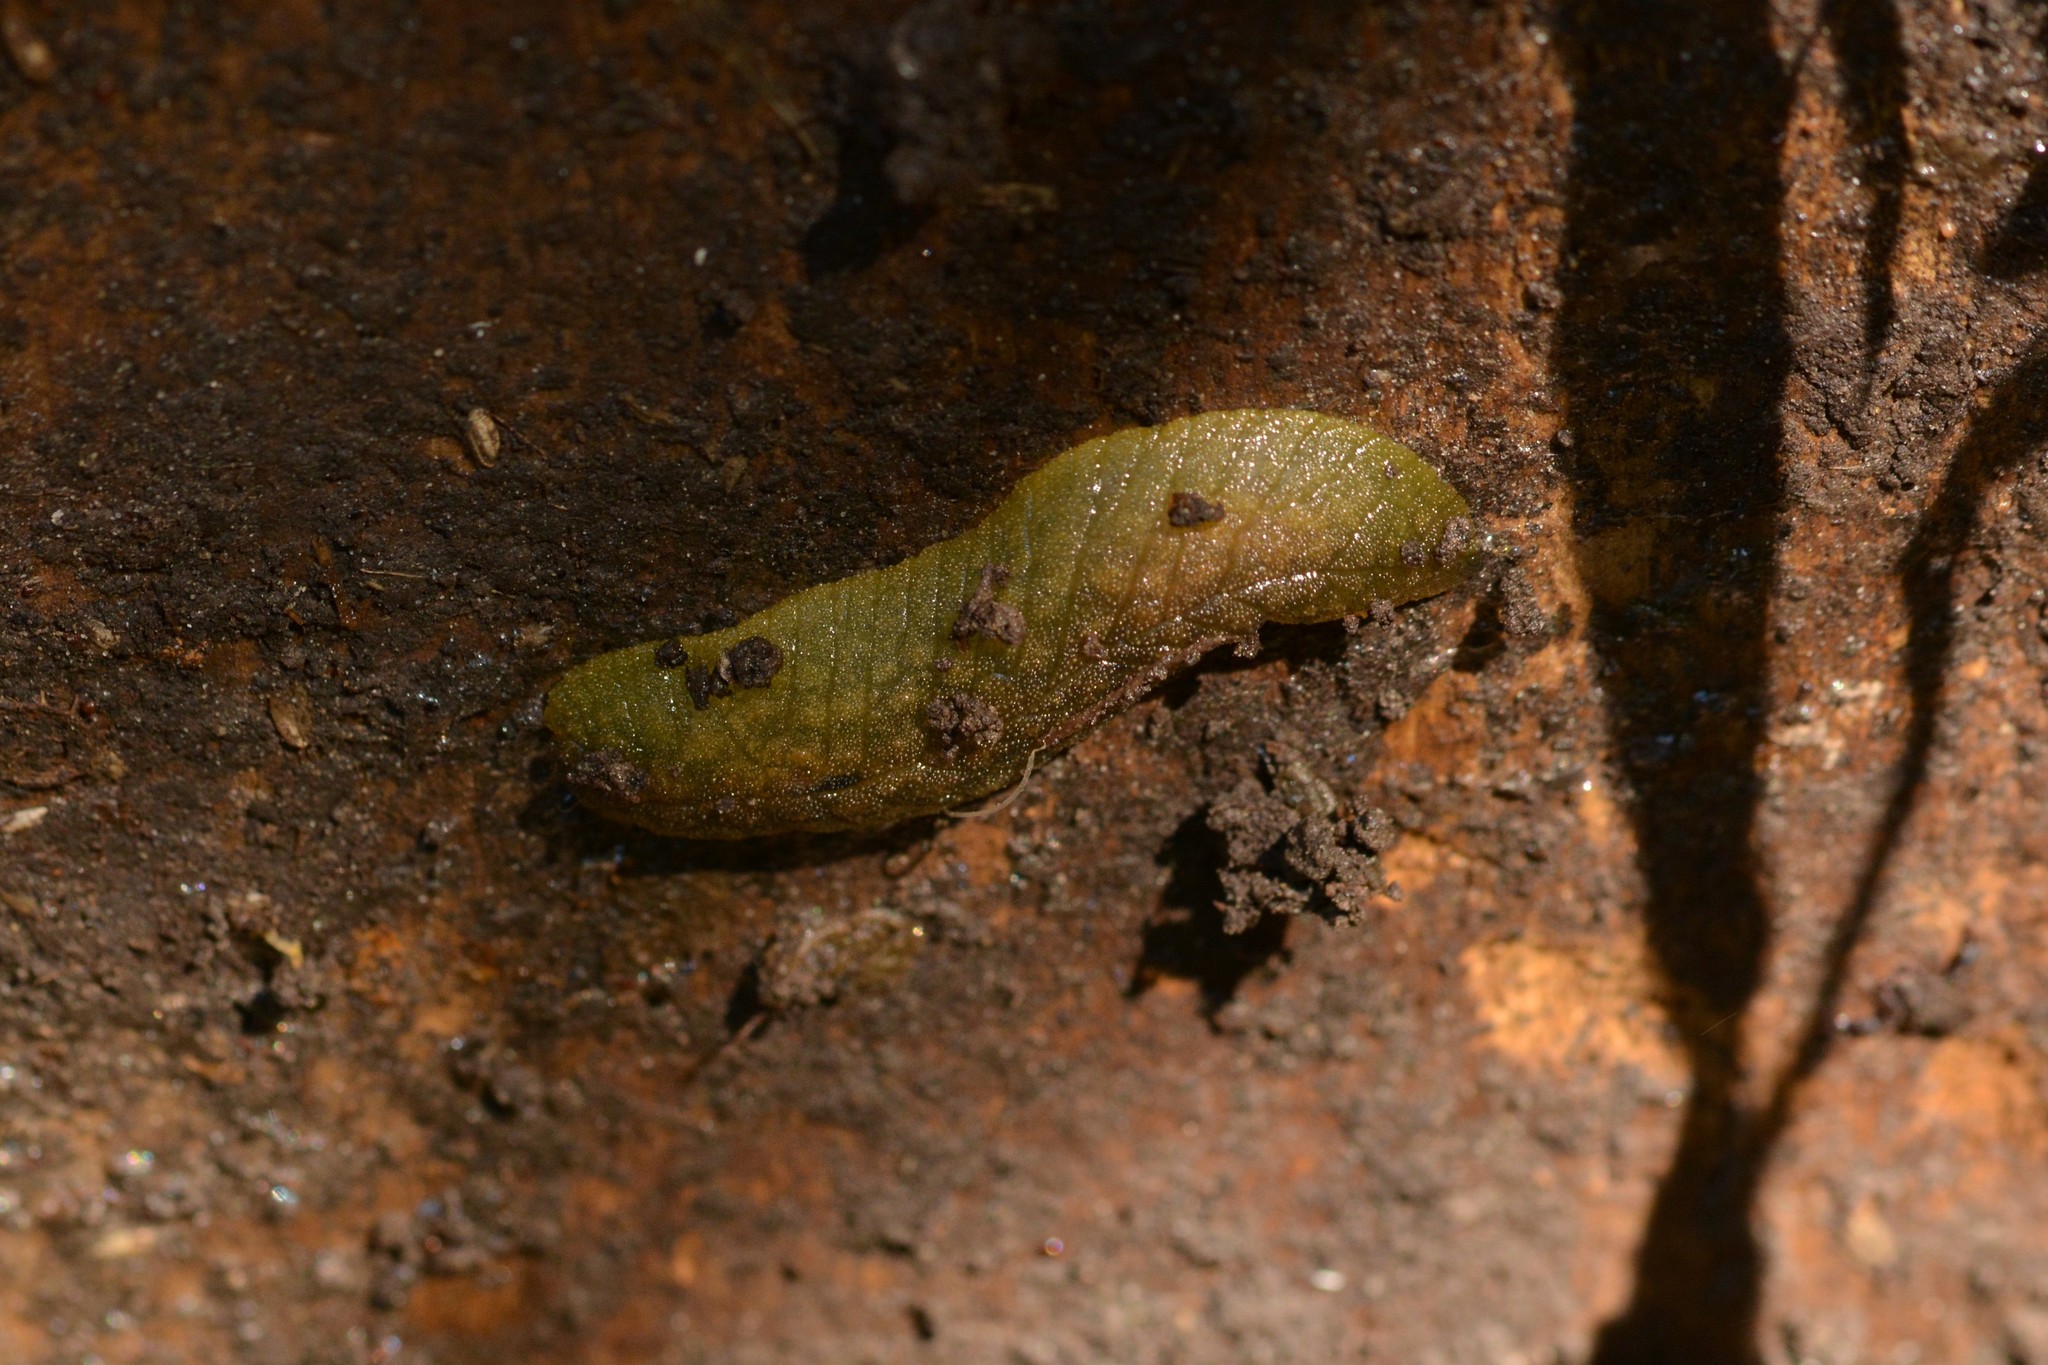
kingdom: Animalia
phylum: Mollusca
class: Gastropoda
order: Stylommatophora
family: Athoracophoridae
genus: Athoracophorus
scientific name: Athoracophorus papillatus
